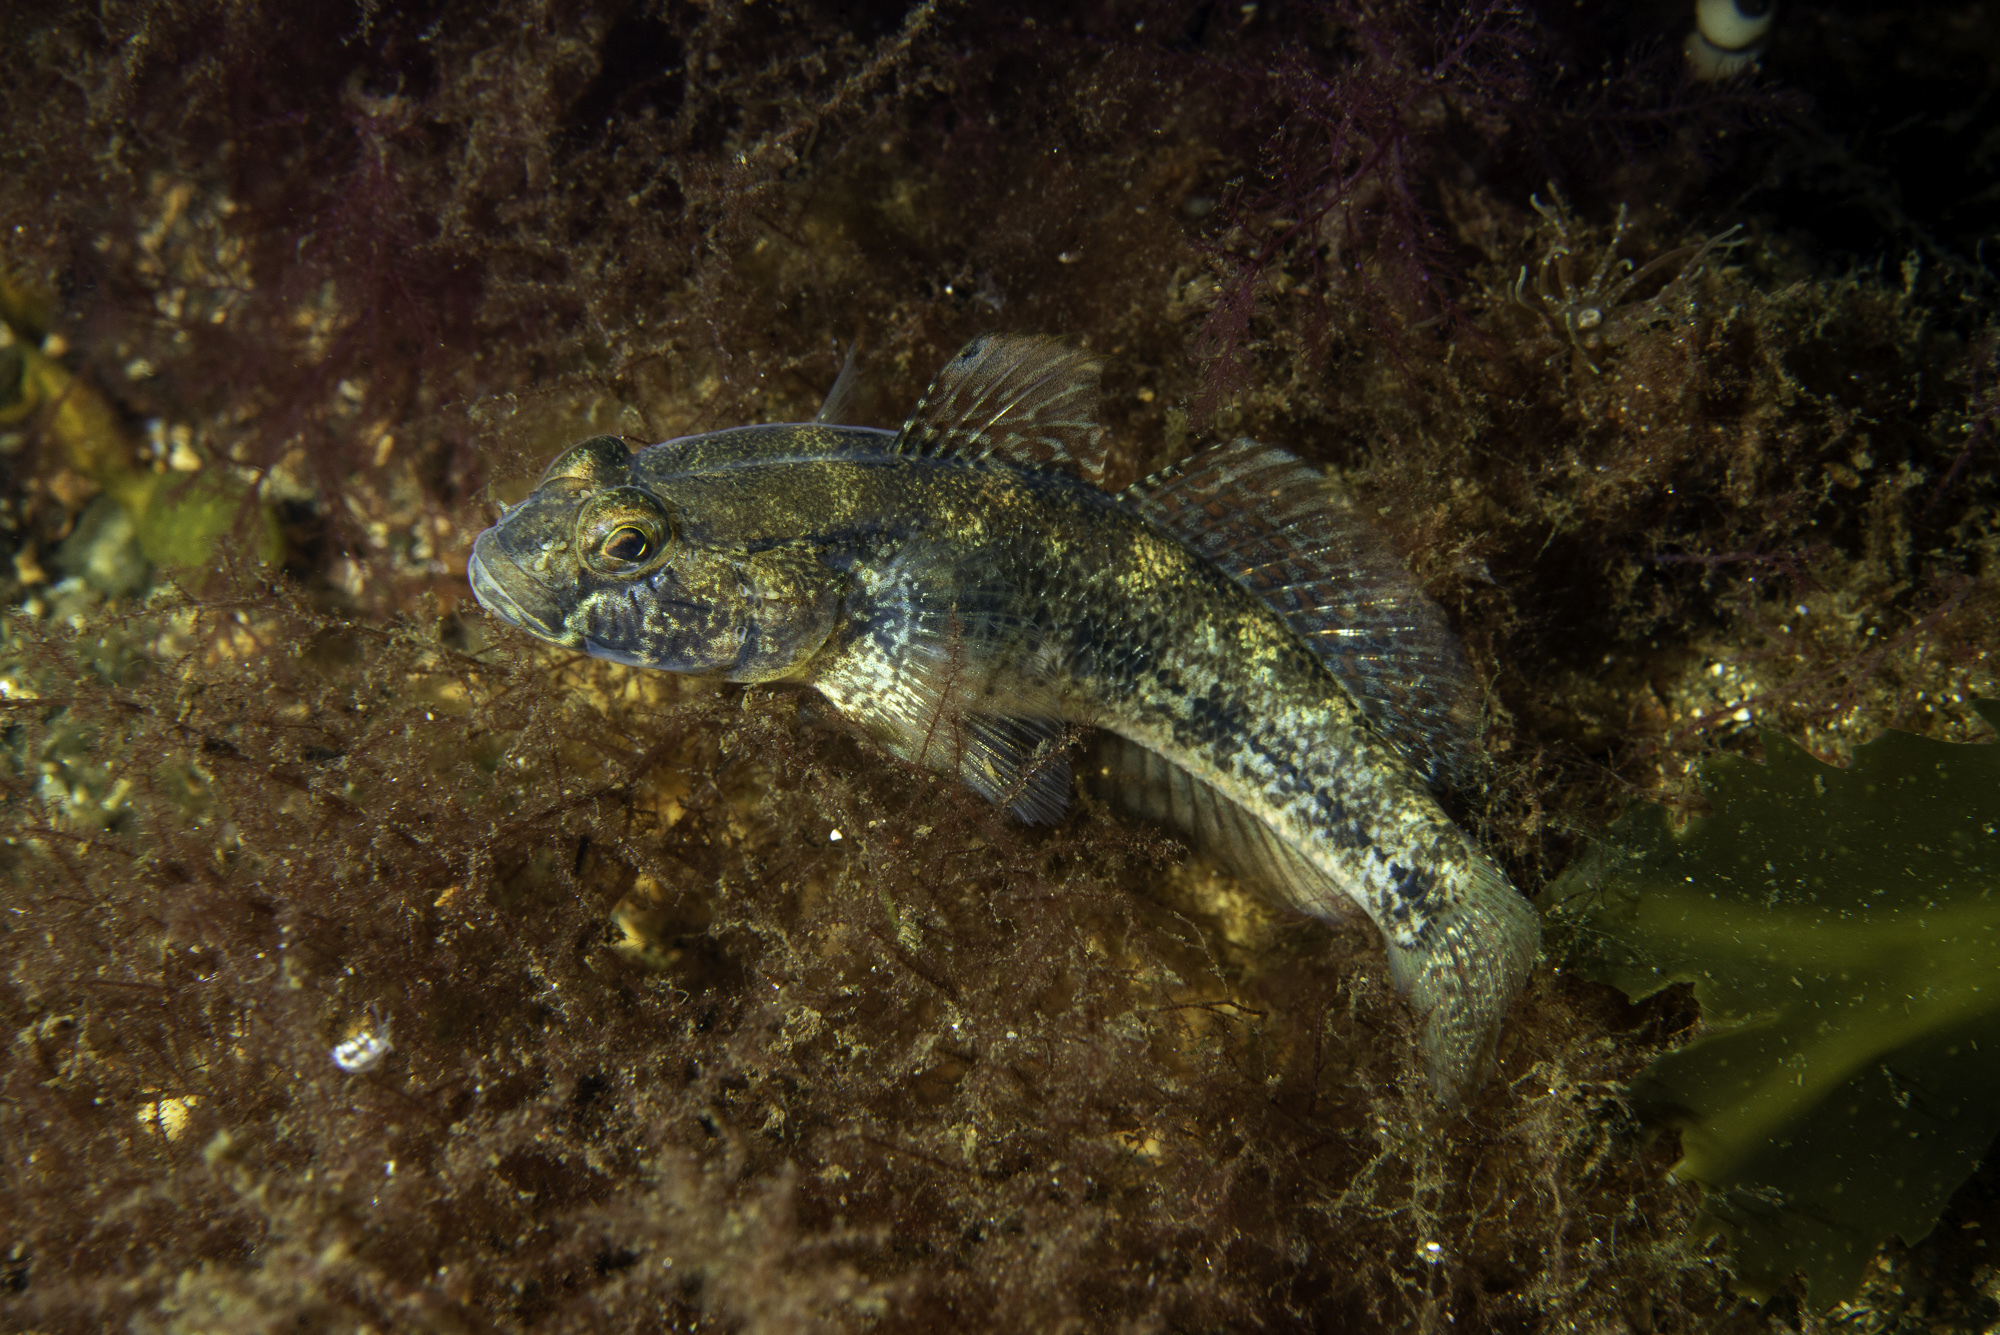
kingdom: Animalia
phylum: Chordata
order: Perciformes
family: Gobiidae
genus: Gobius
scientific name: Gobius niger
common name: Black goby
